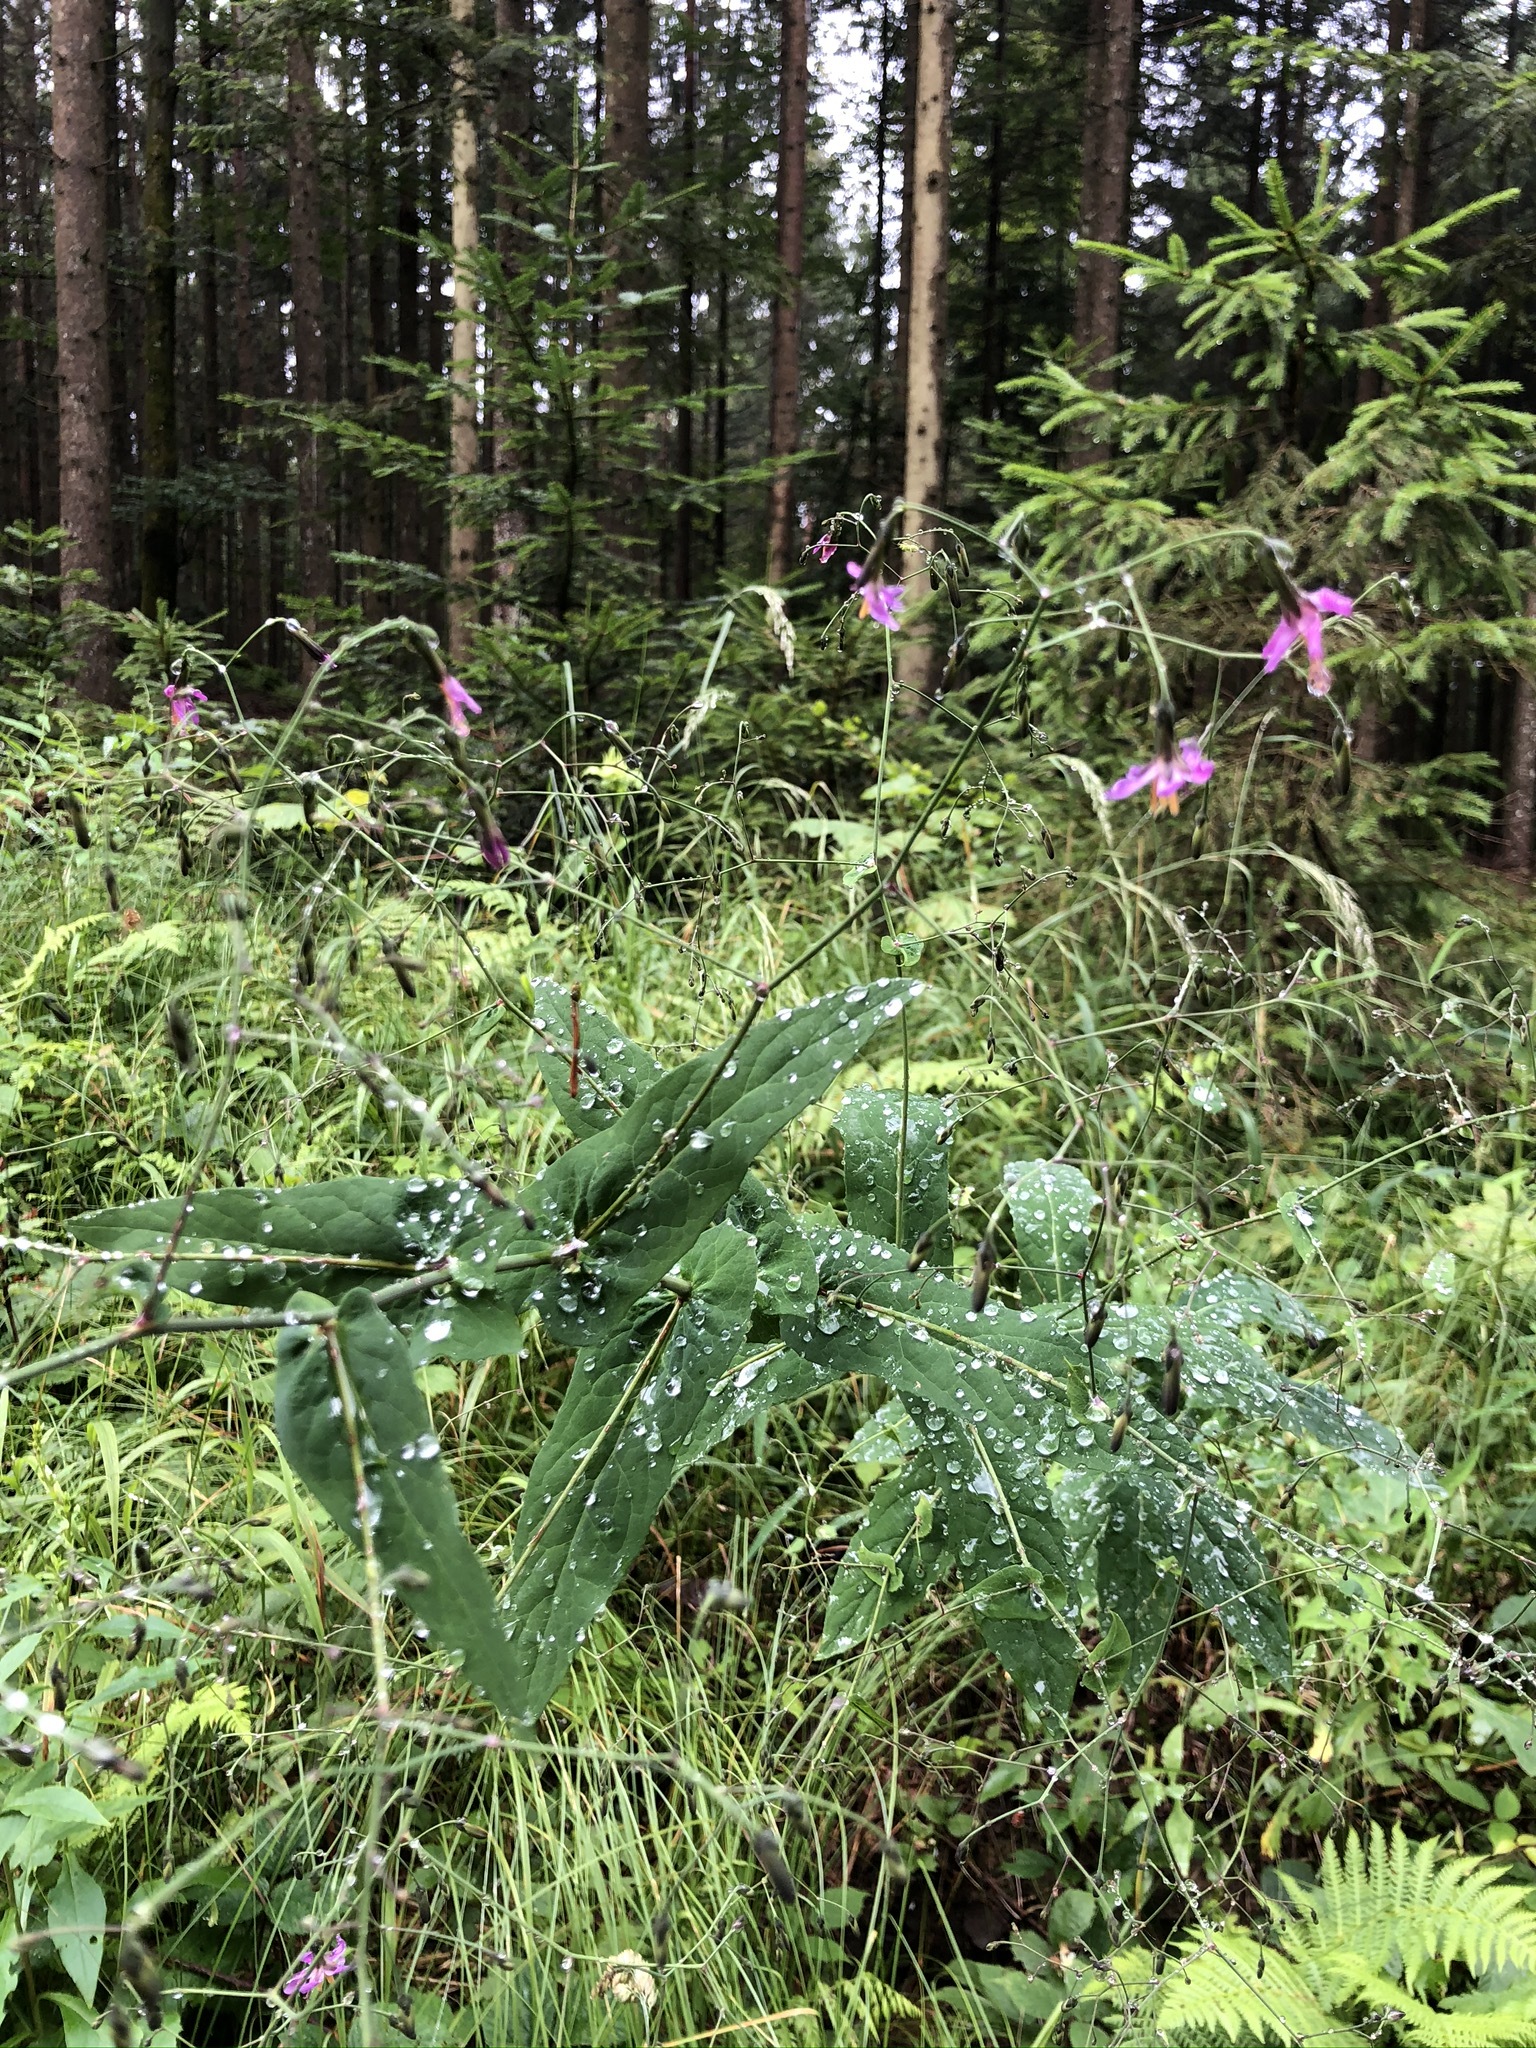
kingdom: Plantae
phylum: Tracheophyta
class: Magnoliopsida
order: Asterales
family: Asteraceae
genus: Prenanthes
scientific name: Prenanthes purpurea
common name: Purple lettuce
